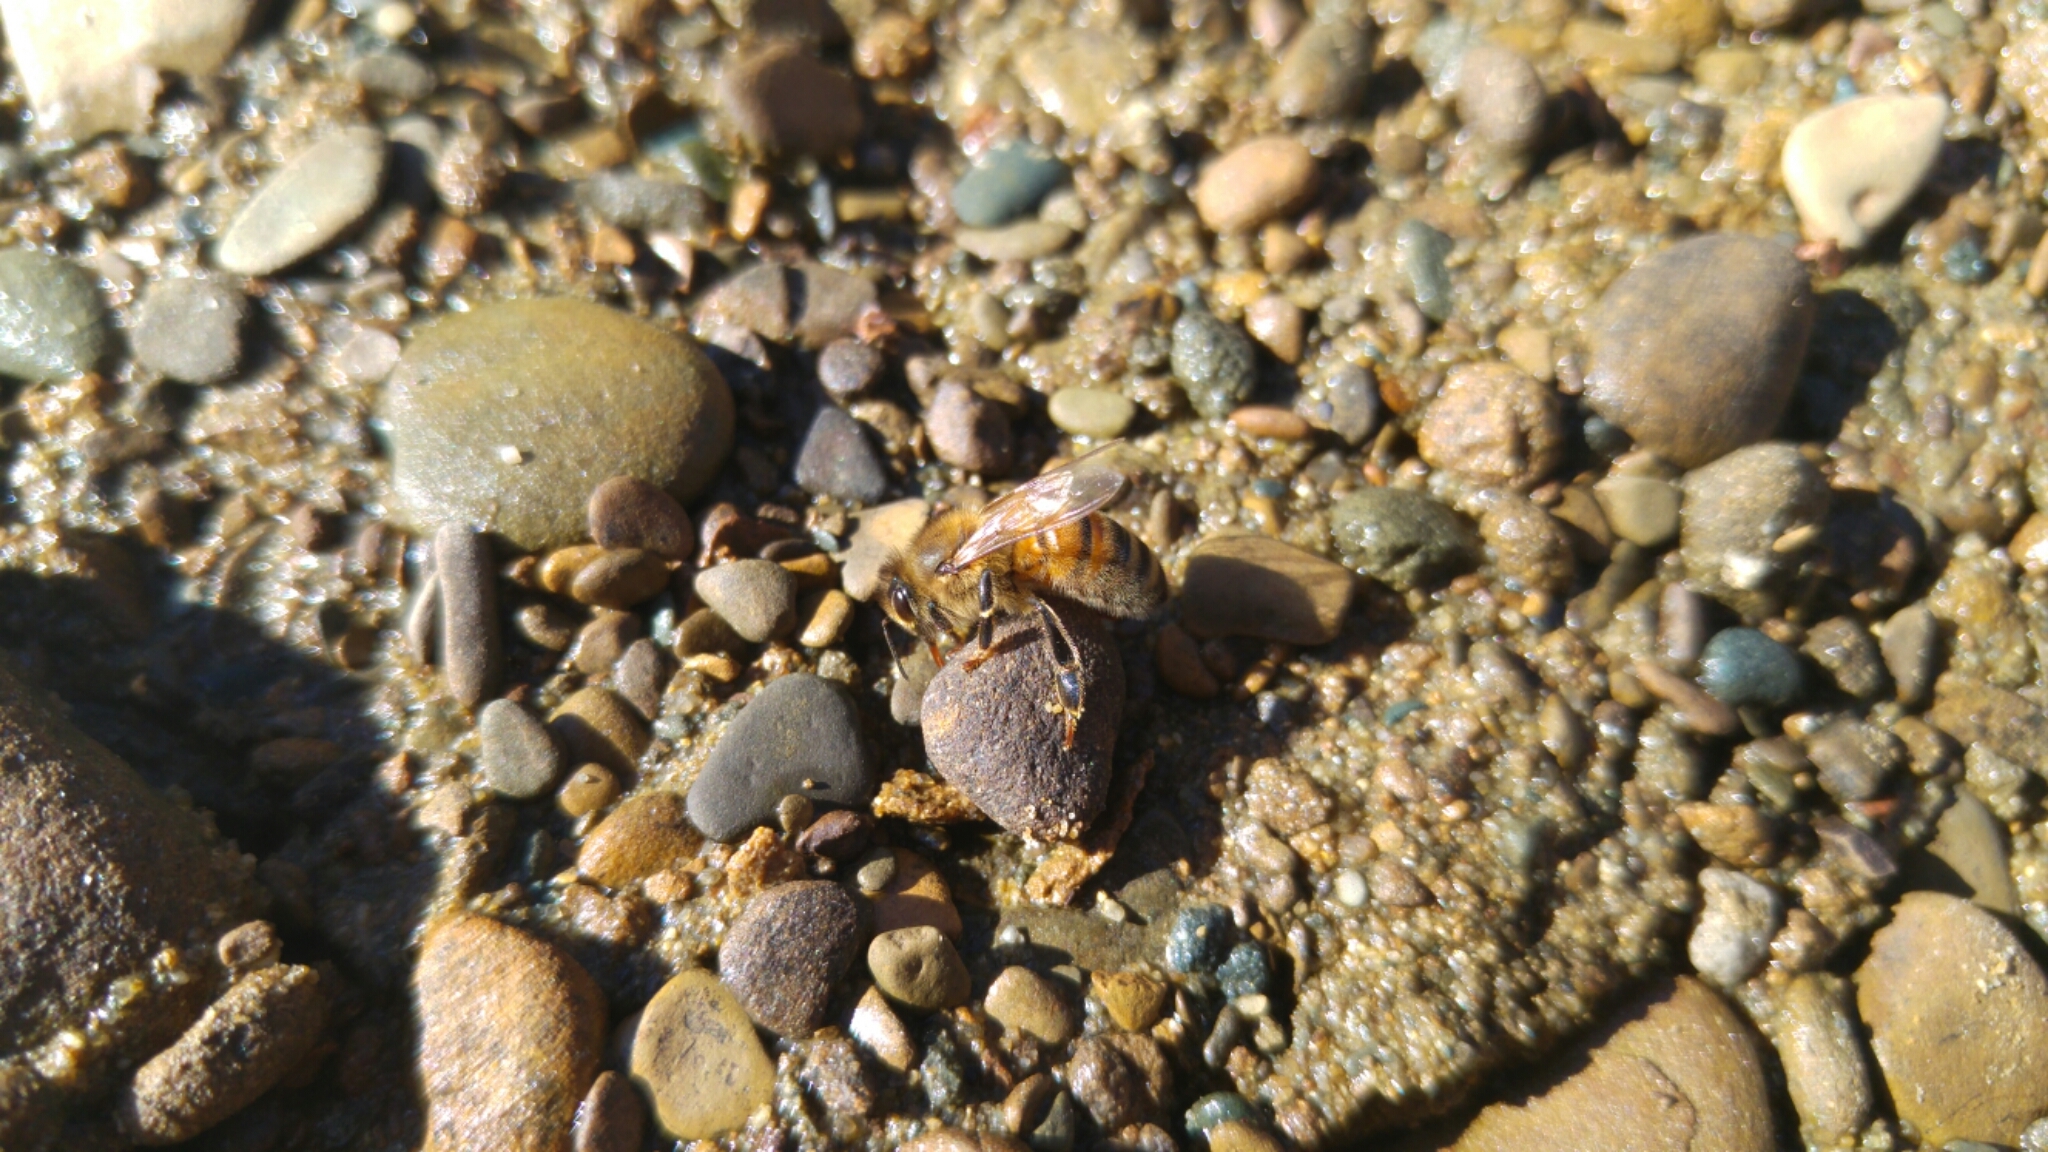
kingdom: Animalia
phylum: Arthropoda
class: Insecta
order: Hymenoptera
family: Apidae
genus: Apis
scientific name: Apis mellifera
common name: Honey bee
